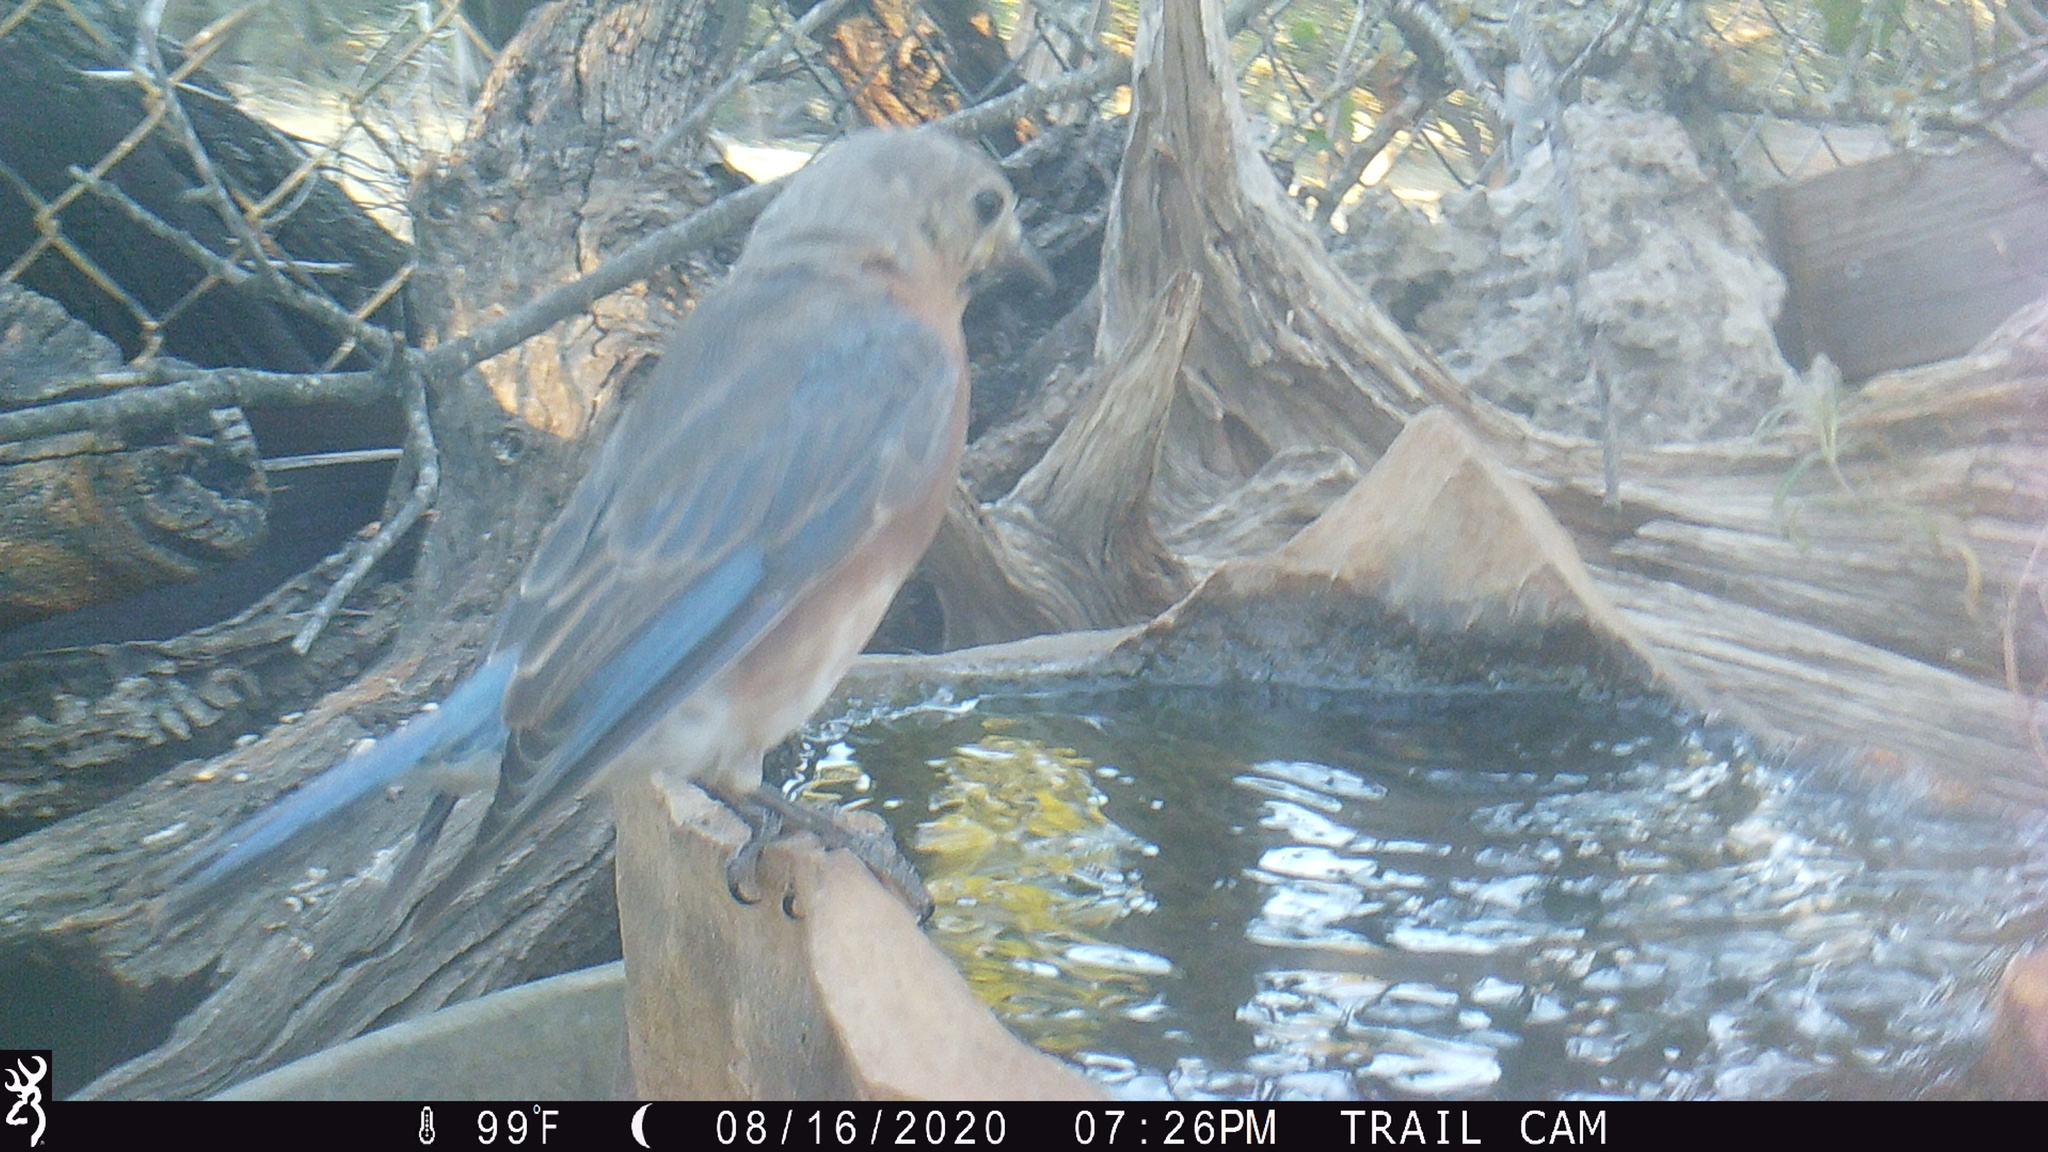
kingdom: Animalia
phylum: Chordata
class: Aves
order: Passeriformes
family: Turdidae
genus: Sialia
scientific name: Sialia sialis
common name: Eastern bluebird
